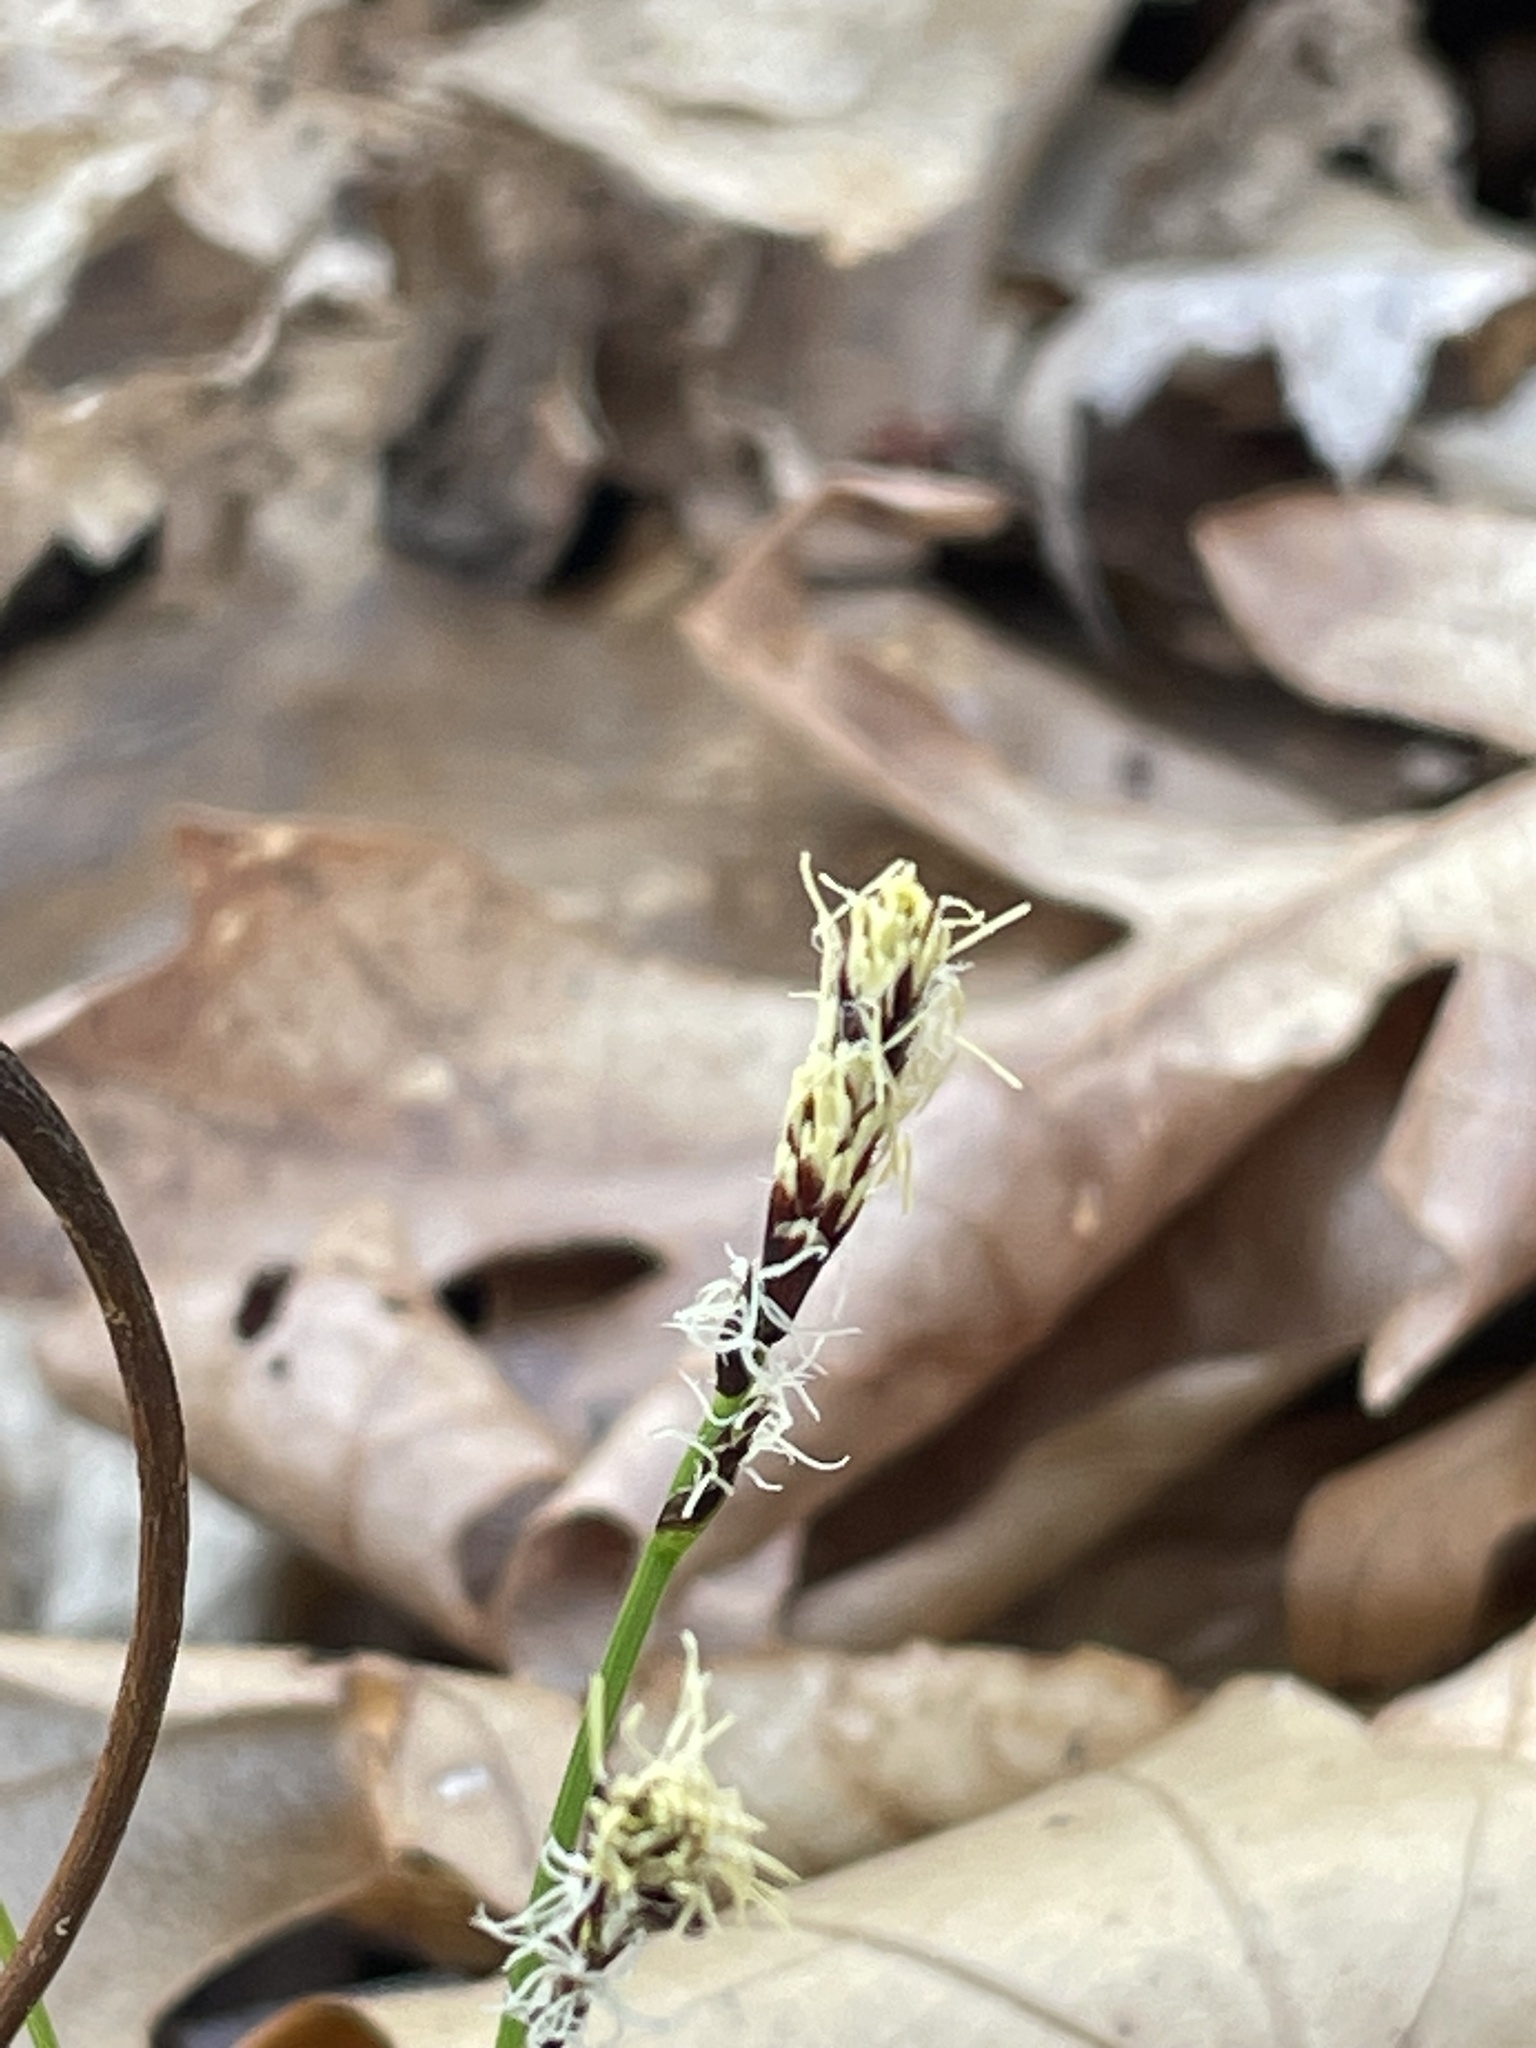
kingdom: Plantae
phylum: Tracheophyta
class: Liliopsida
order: Poales
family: Cyperaceae
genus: Carex
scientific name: Carex pensylvanica
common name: Common oak sedge
